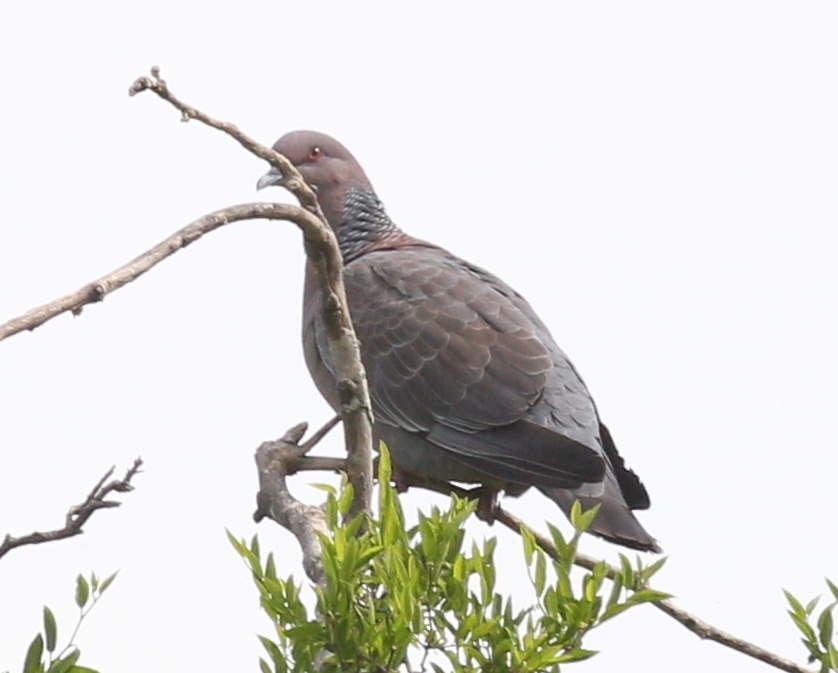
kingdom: Animalia
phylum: Chordata
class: Aves
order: Columbiformes
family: Columbidae
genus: Patagioenas
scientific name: Patagioenas picazuro
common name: Picazuro pigeon
